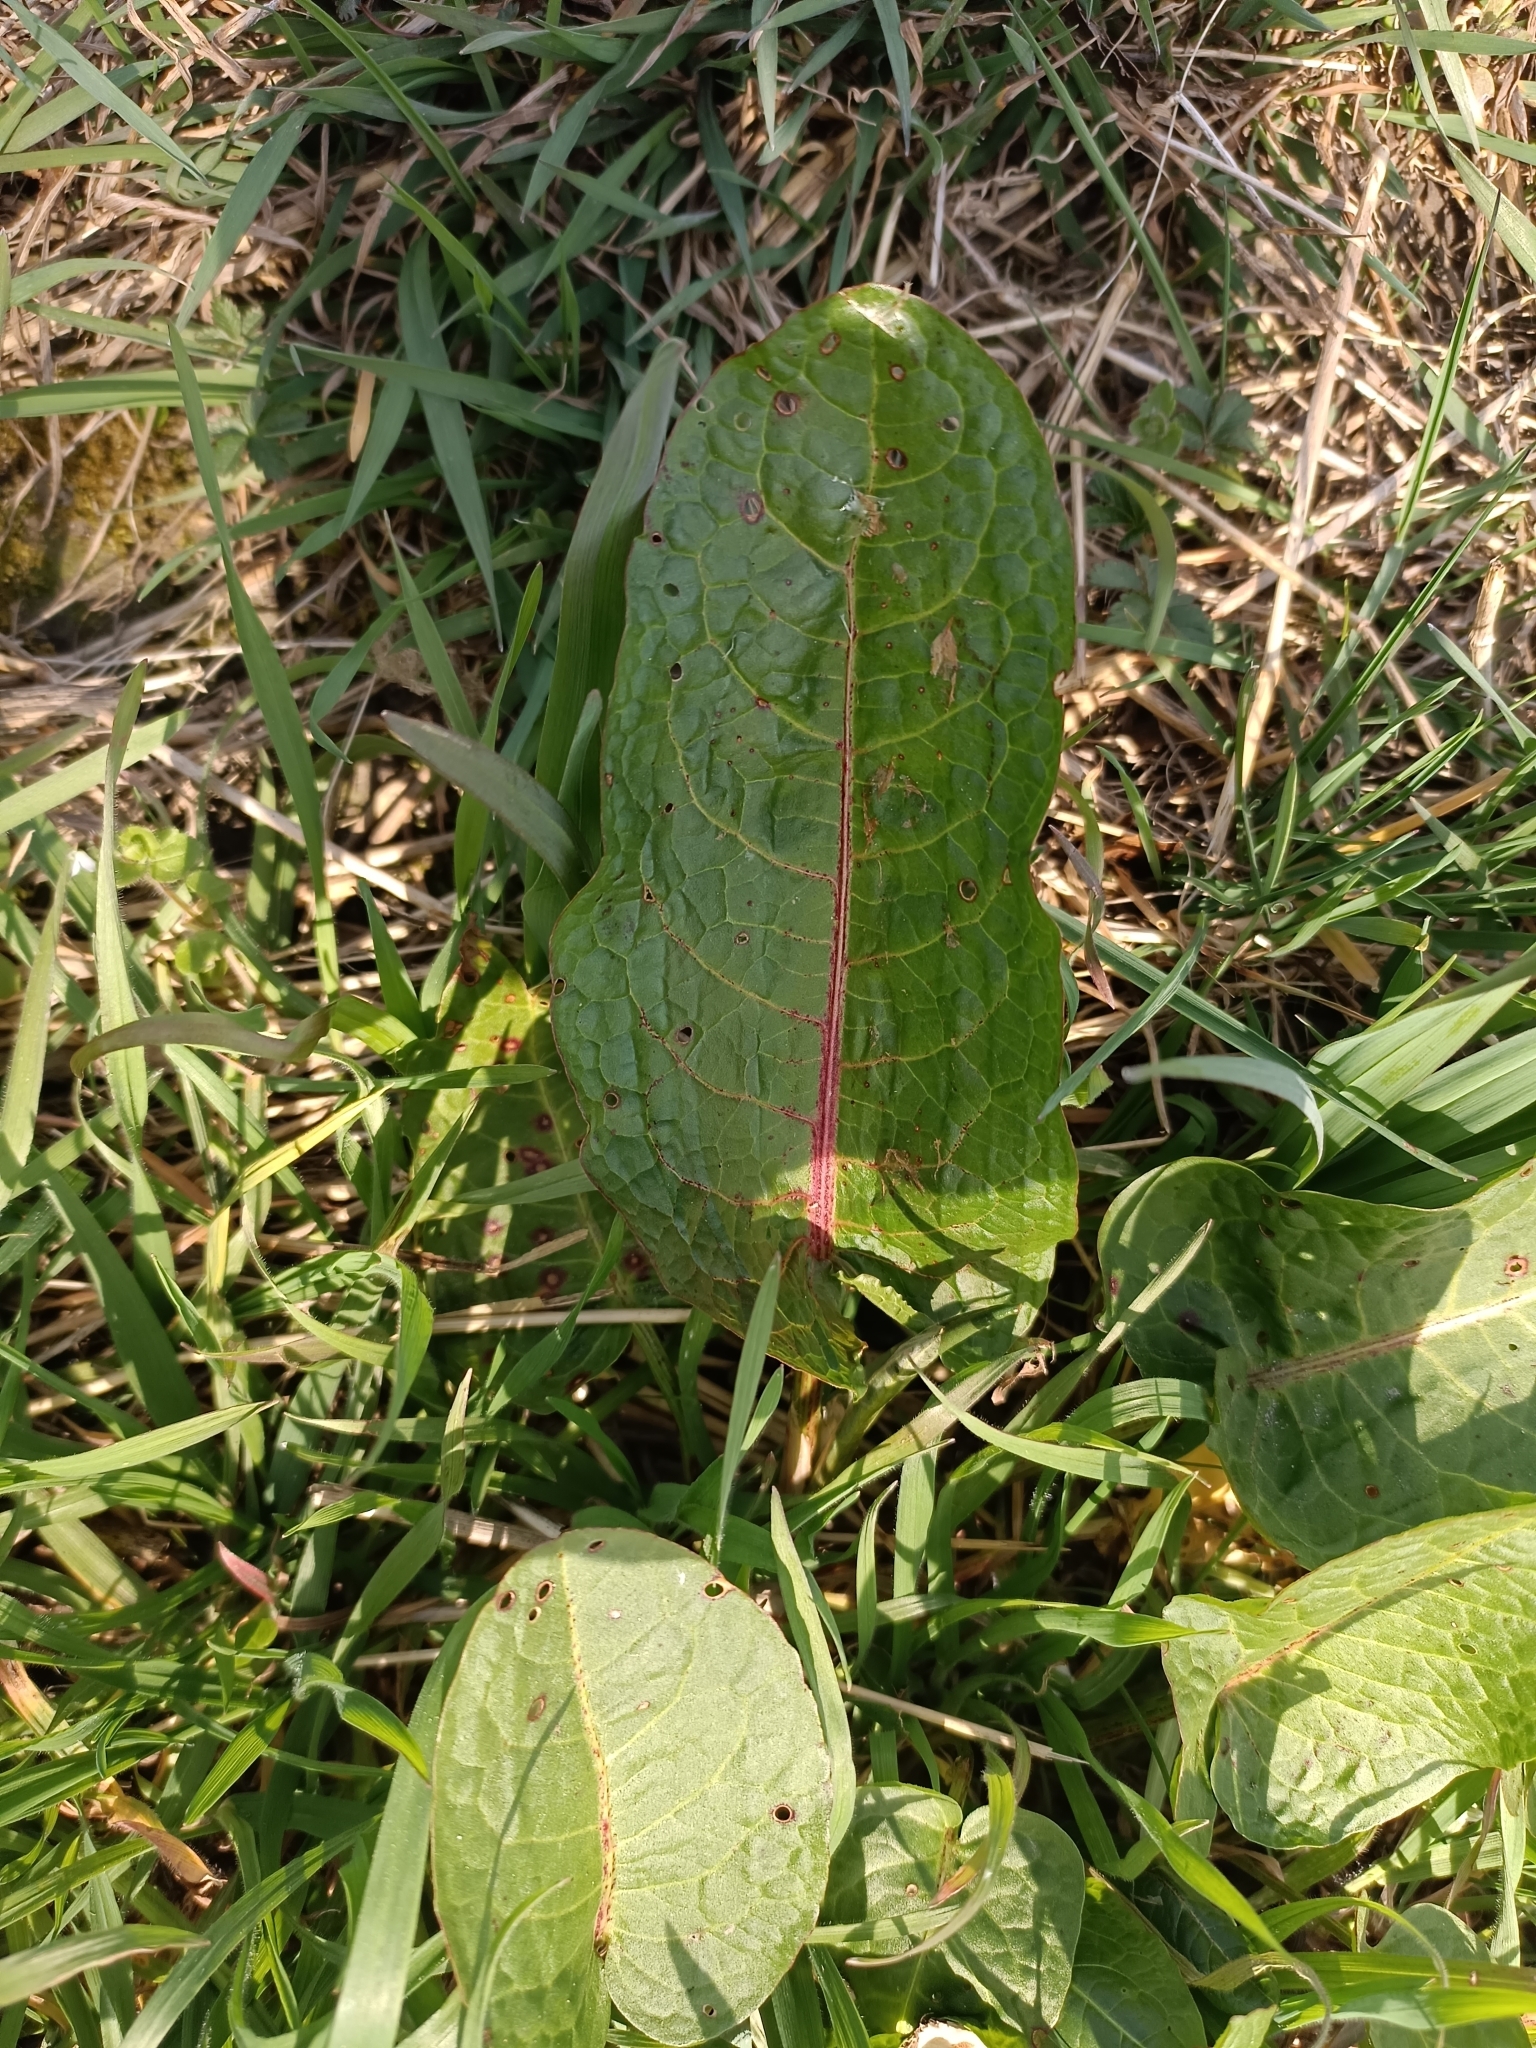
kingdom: Plantae
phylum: Tracheophyta
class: Magnoliopsida
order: Caryophyllales
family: Polygonaceae
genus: Rumex
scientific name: Rumex obtusifolius
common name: Bitter dock
